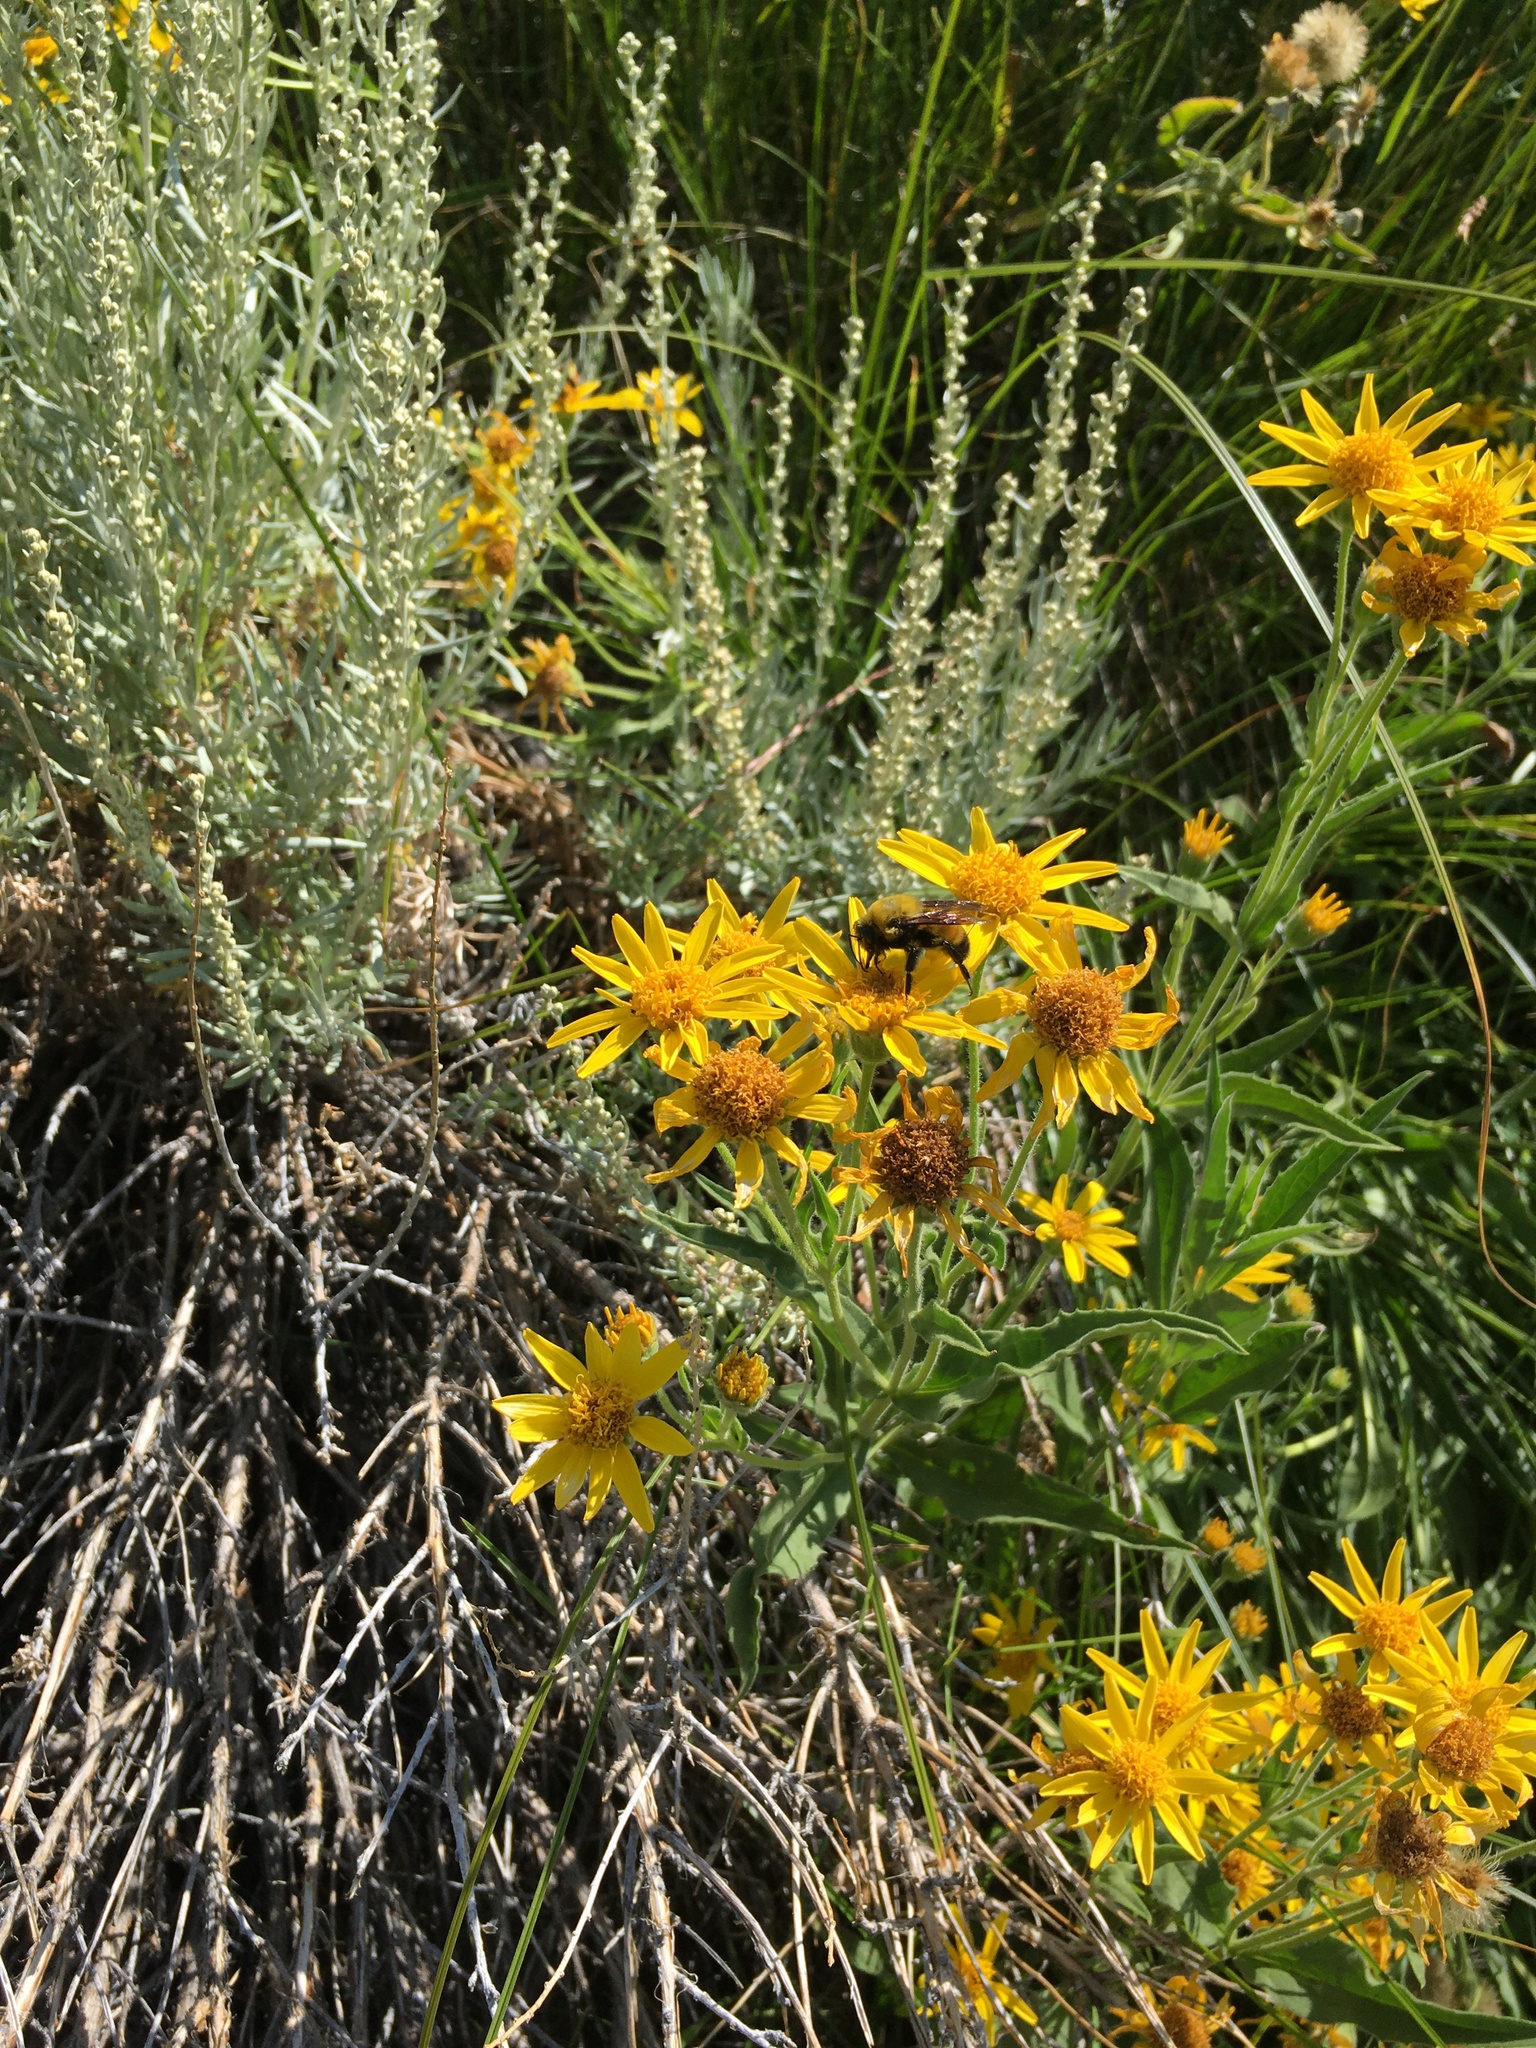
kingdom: Animalia
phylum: Arthropoda
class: Insecta
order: Hymenoptera
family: Apidae
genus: Bombus
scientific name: Bombus morrisoni
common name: Morrison bumble bee
